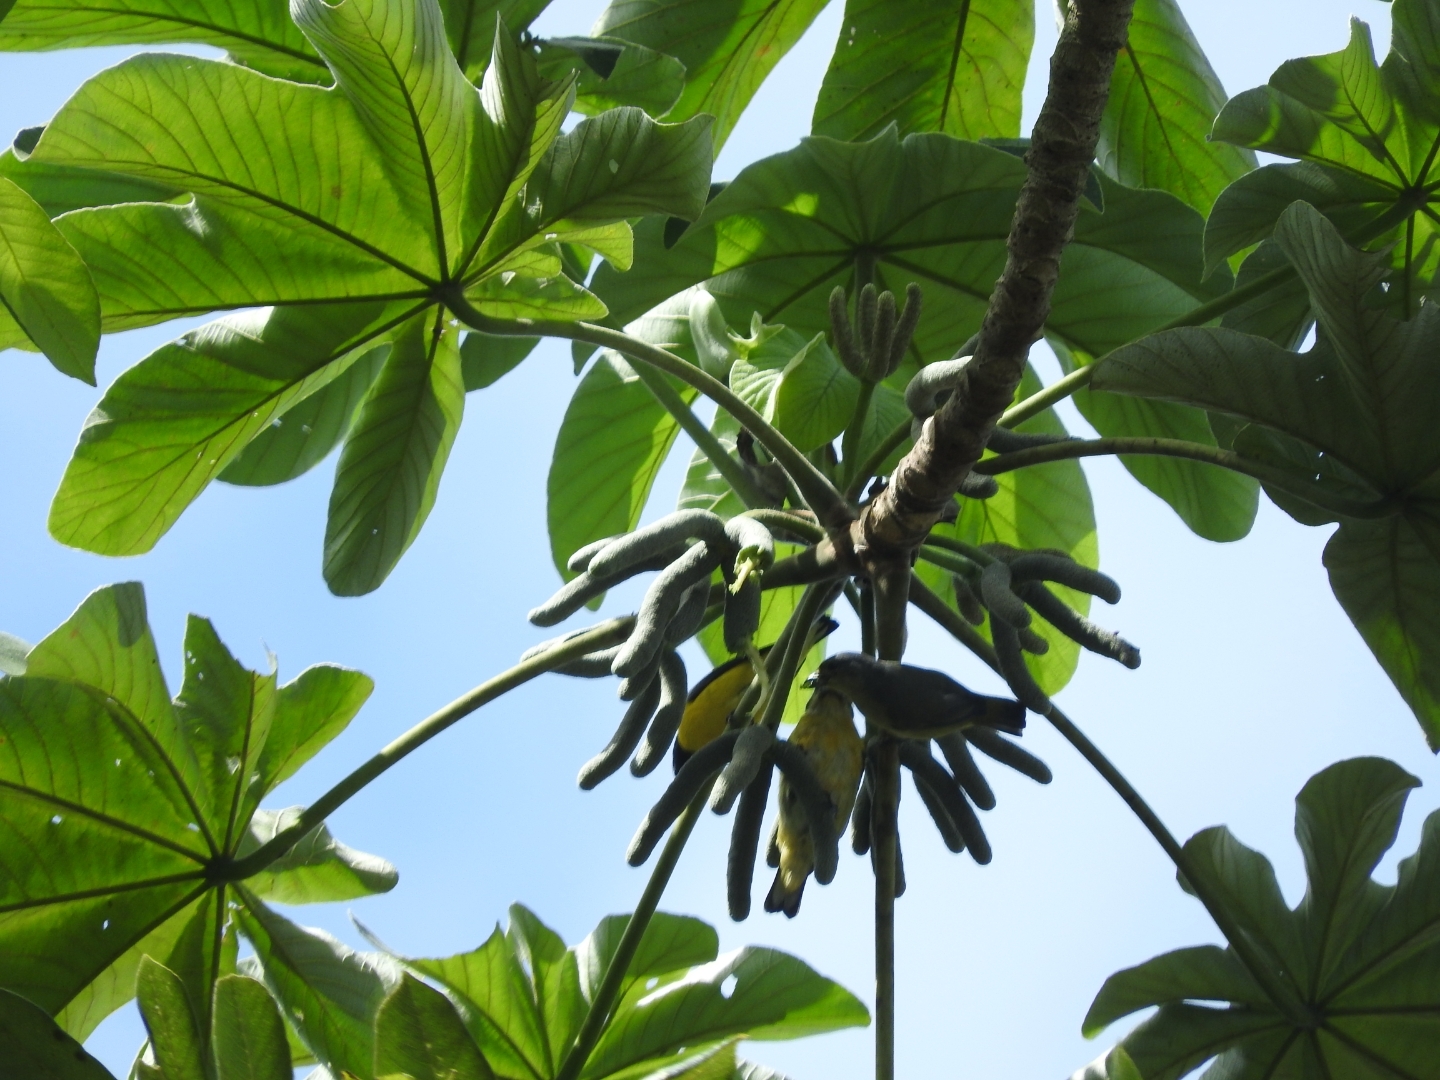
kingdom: Animalia
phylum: Chordata
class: Aves
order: Passeriformes
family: Fringillidae
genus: Euphonia
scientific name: Euphonia affinis
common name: Scrub euphonia
